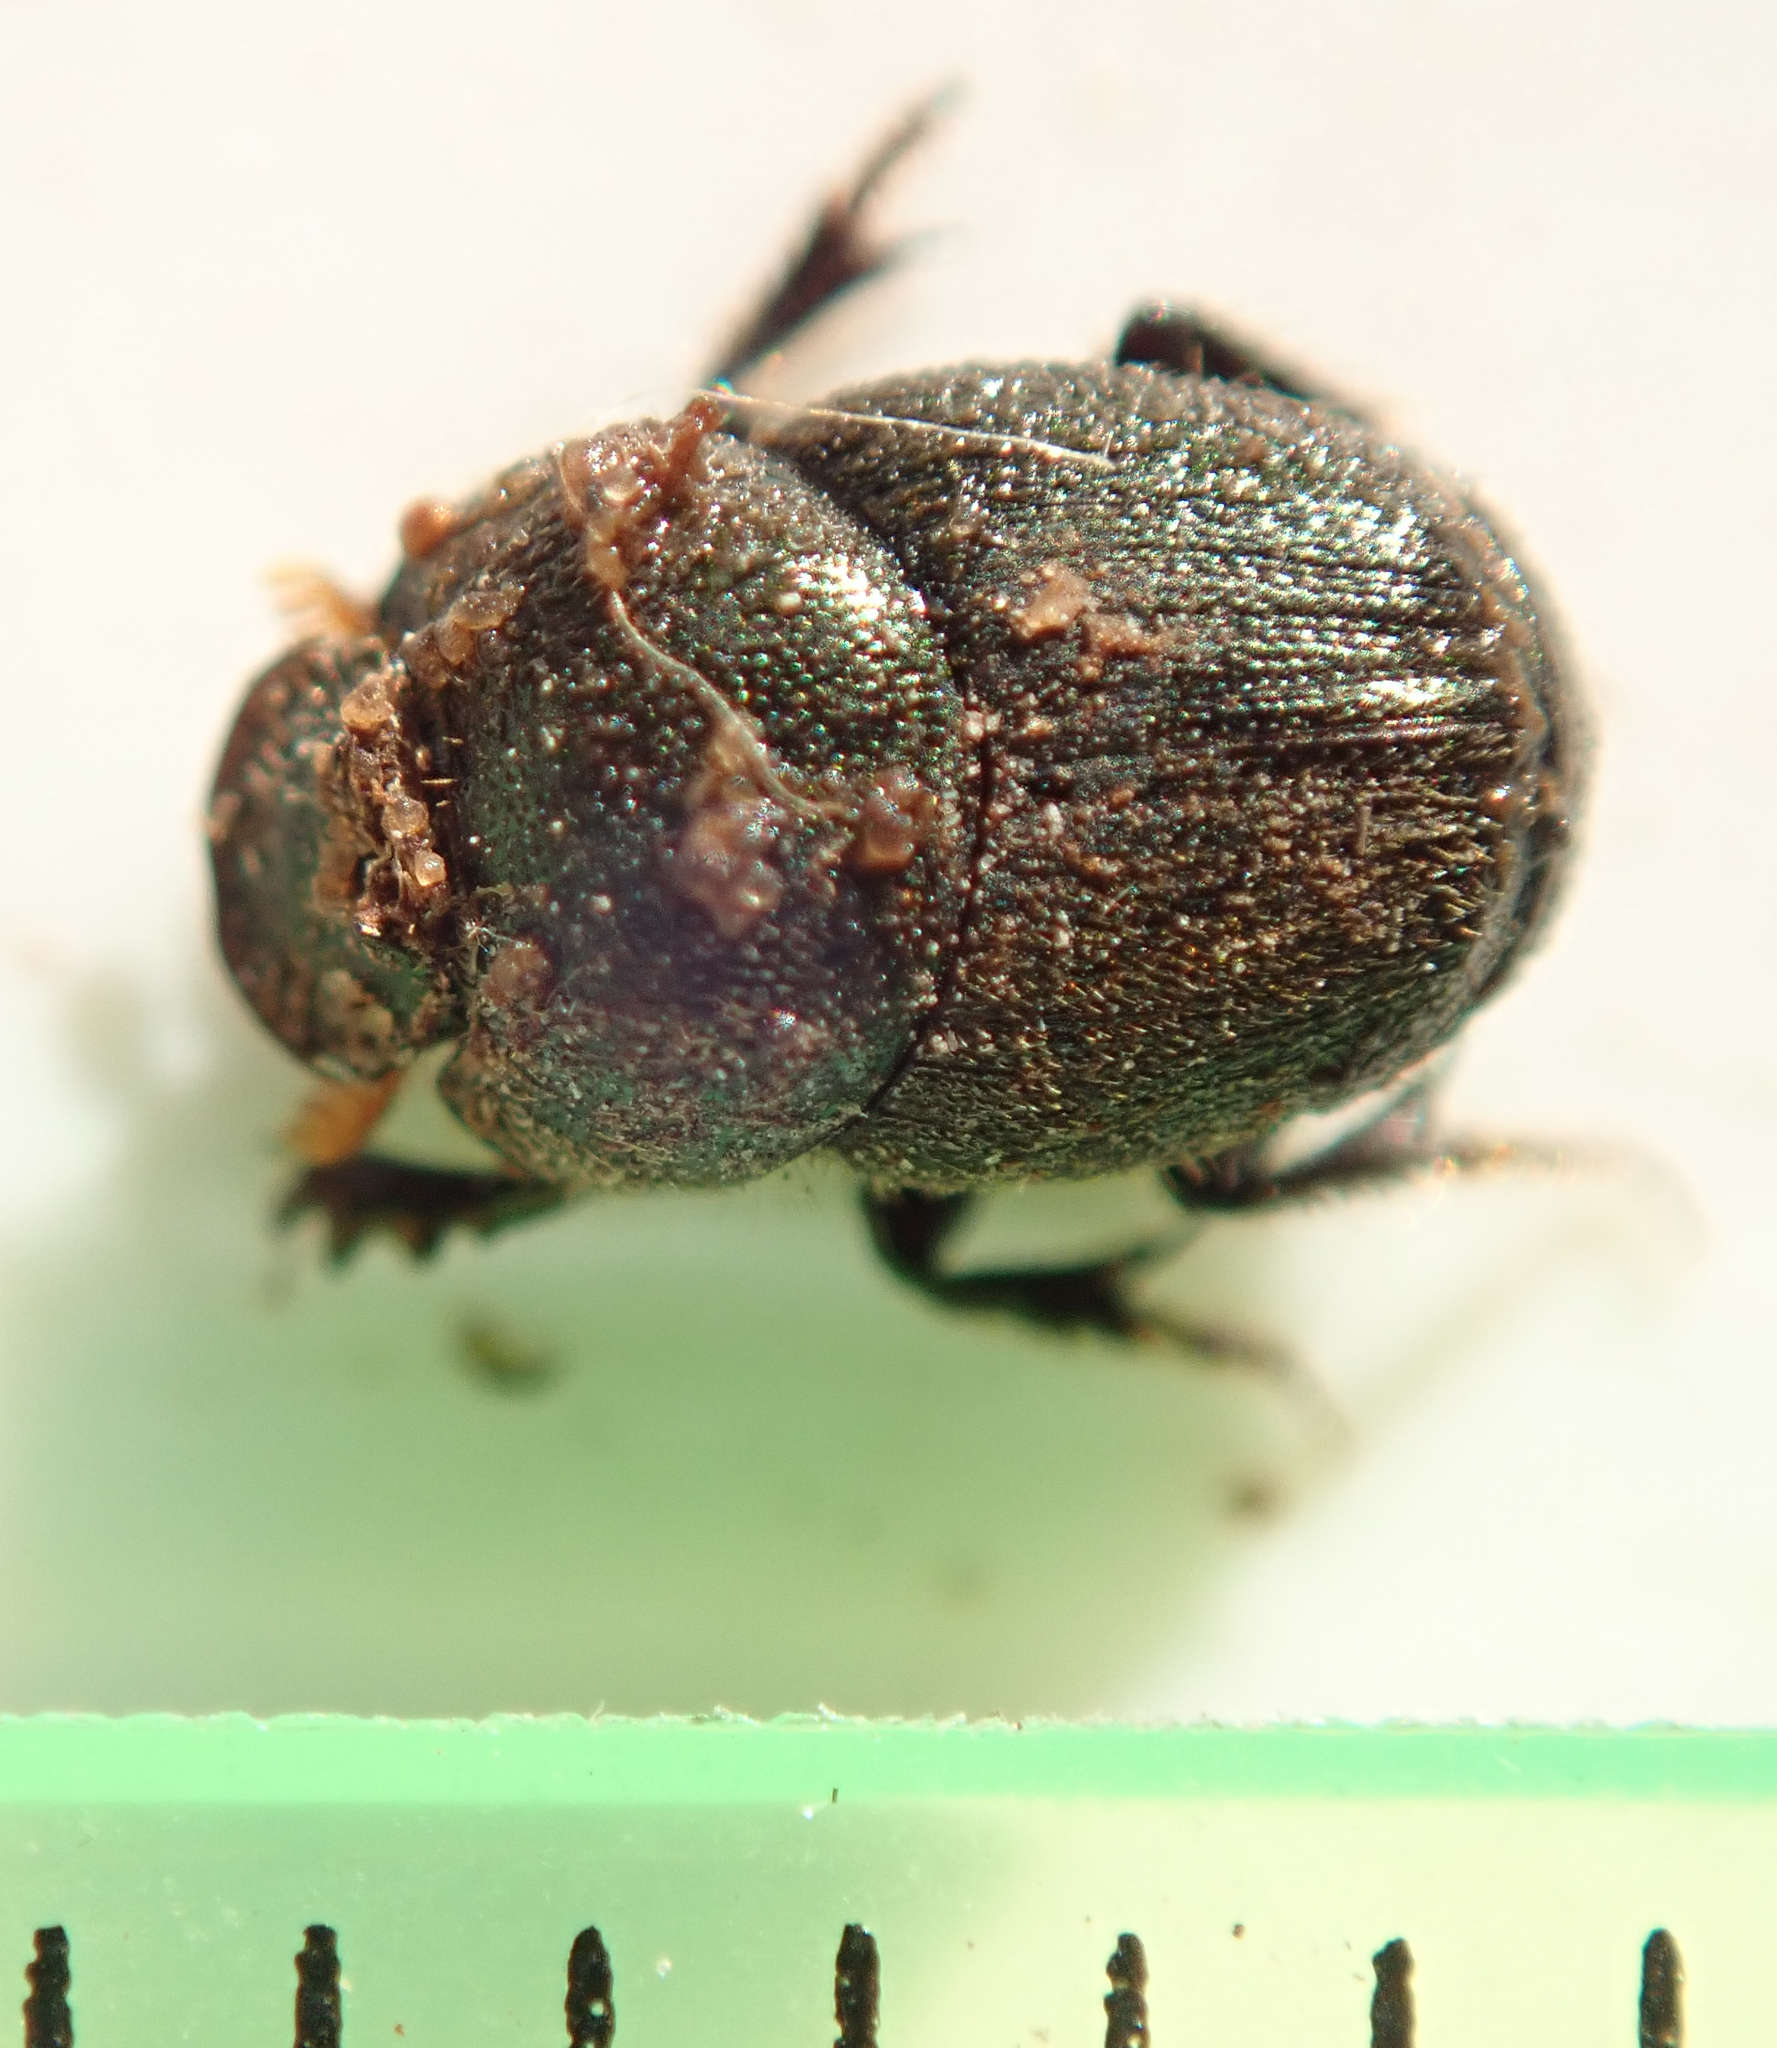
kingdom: Animalia
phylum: Arthropoda
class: Insecta
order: Coleoptera
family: Scarabaeidae
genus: Onthophagus
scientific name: Onthophagus aeruginosus
